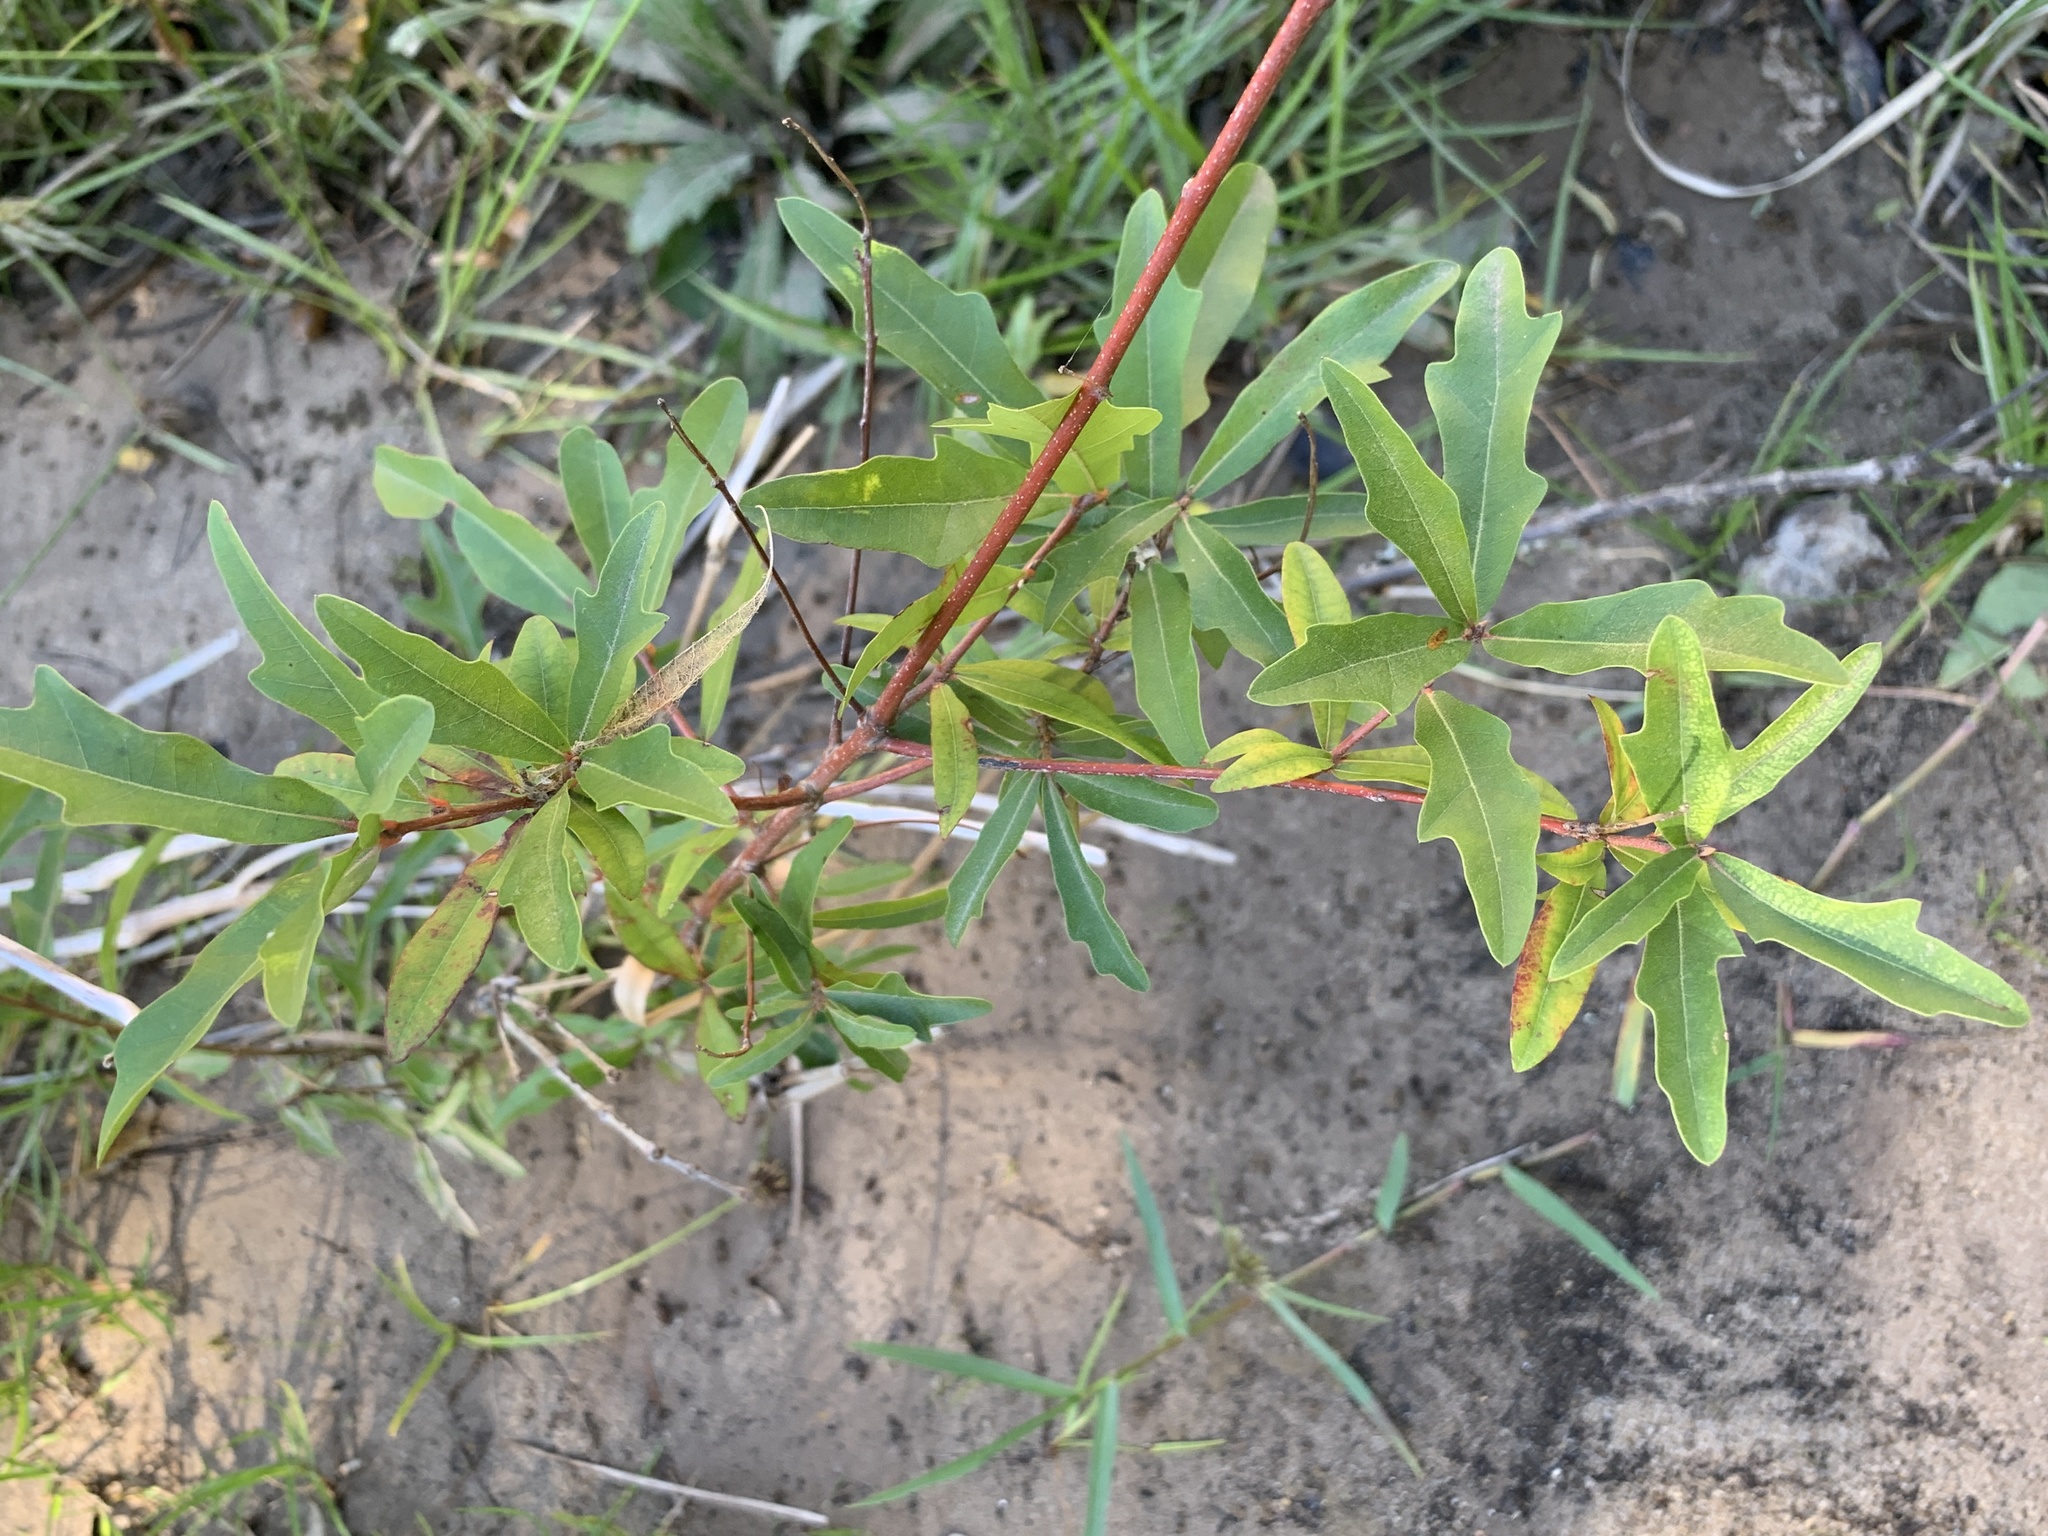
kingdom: Plantae
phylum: Tracheophyta
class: Magnoliopsida
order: Fagales
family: Fagaceae
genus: Quercus
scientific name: Quercus nigra
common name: Water oak
